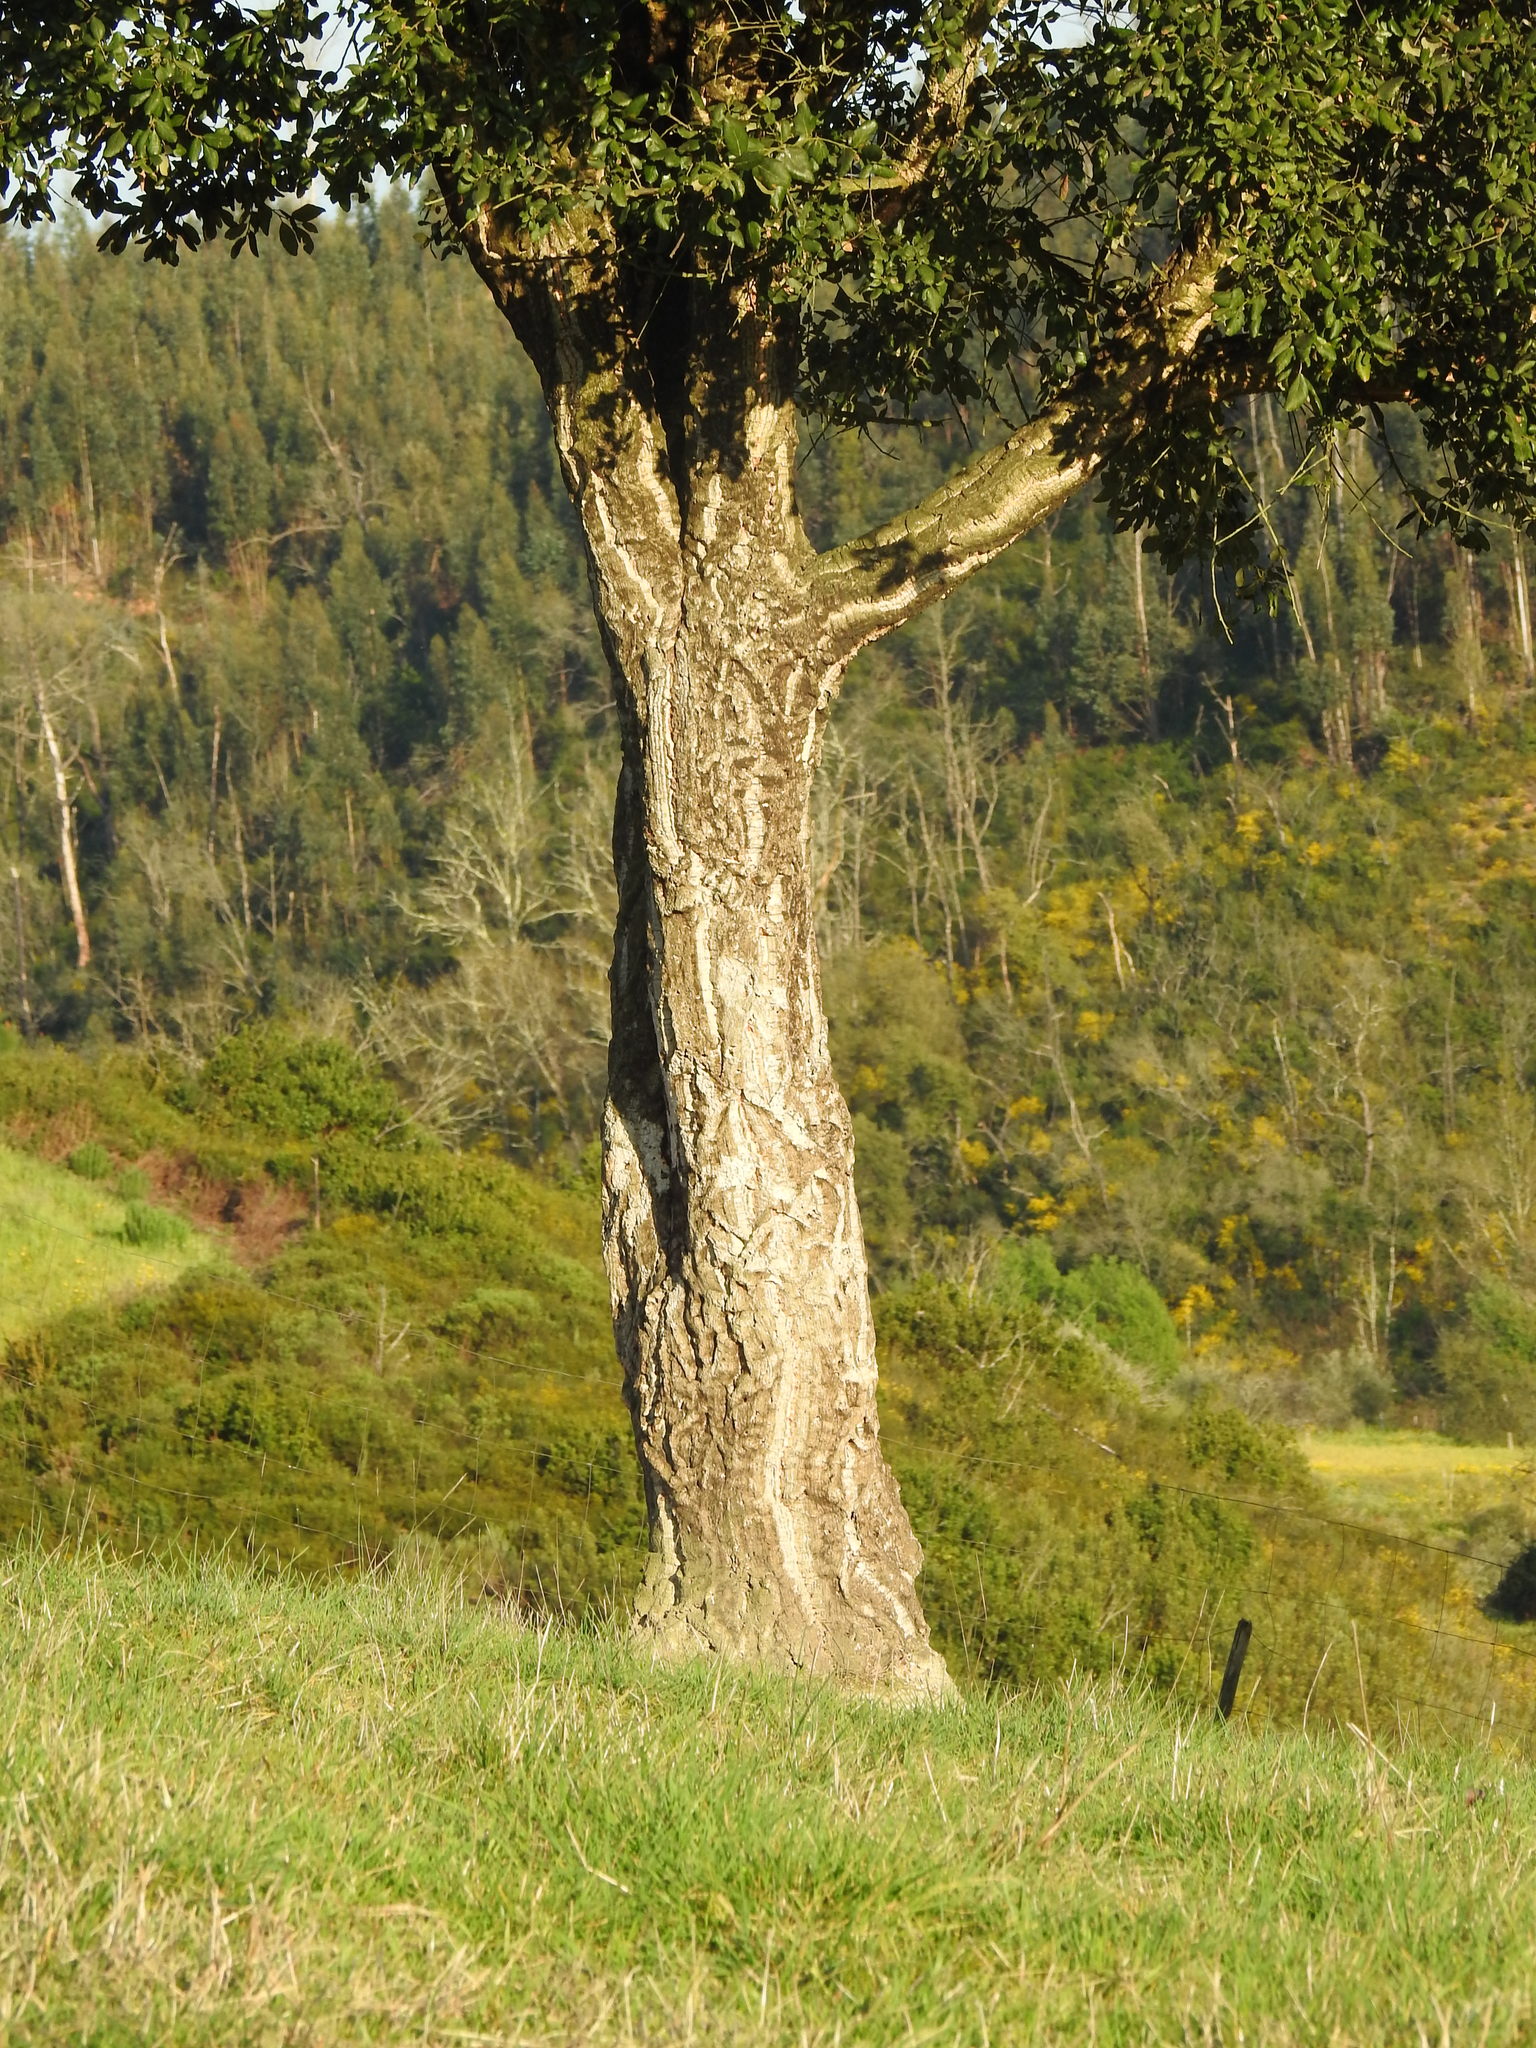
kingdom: Plantae
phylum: Tracheophyta
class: Magnoliopsida
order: Fagales
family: Fagaceae
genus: Quercus
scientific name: Quercus suber
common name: Cork oak
